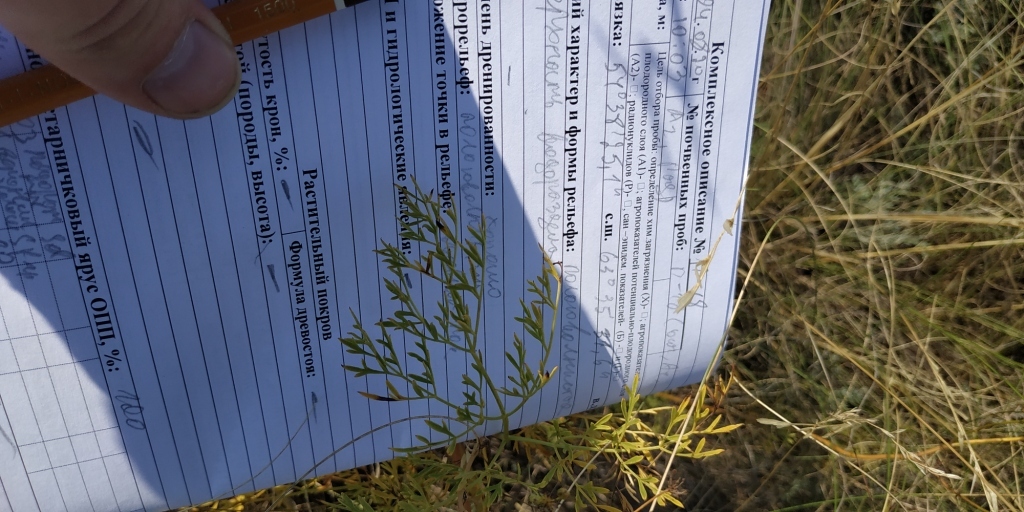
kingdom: Plantae
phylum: Tracheophyta
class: Magnoliopsida
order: Apiales
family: Apiaceae
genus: Silaum
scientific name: Silaum silaus
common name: Pepper-saxifrage
